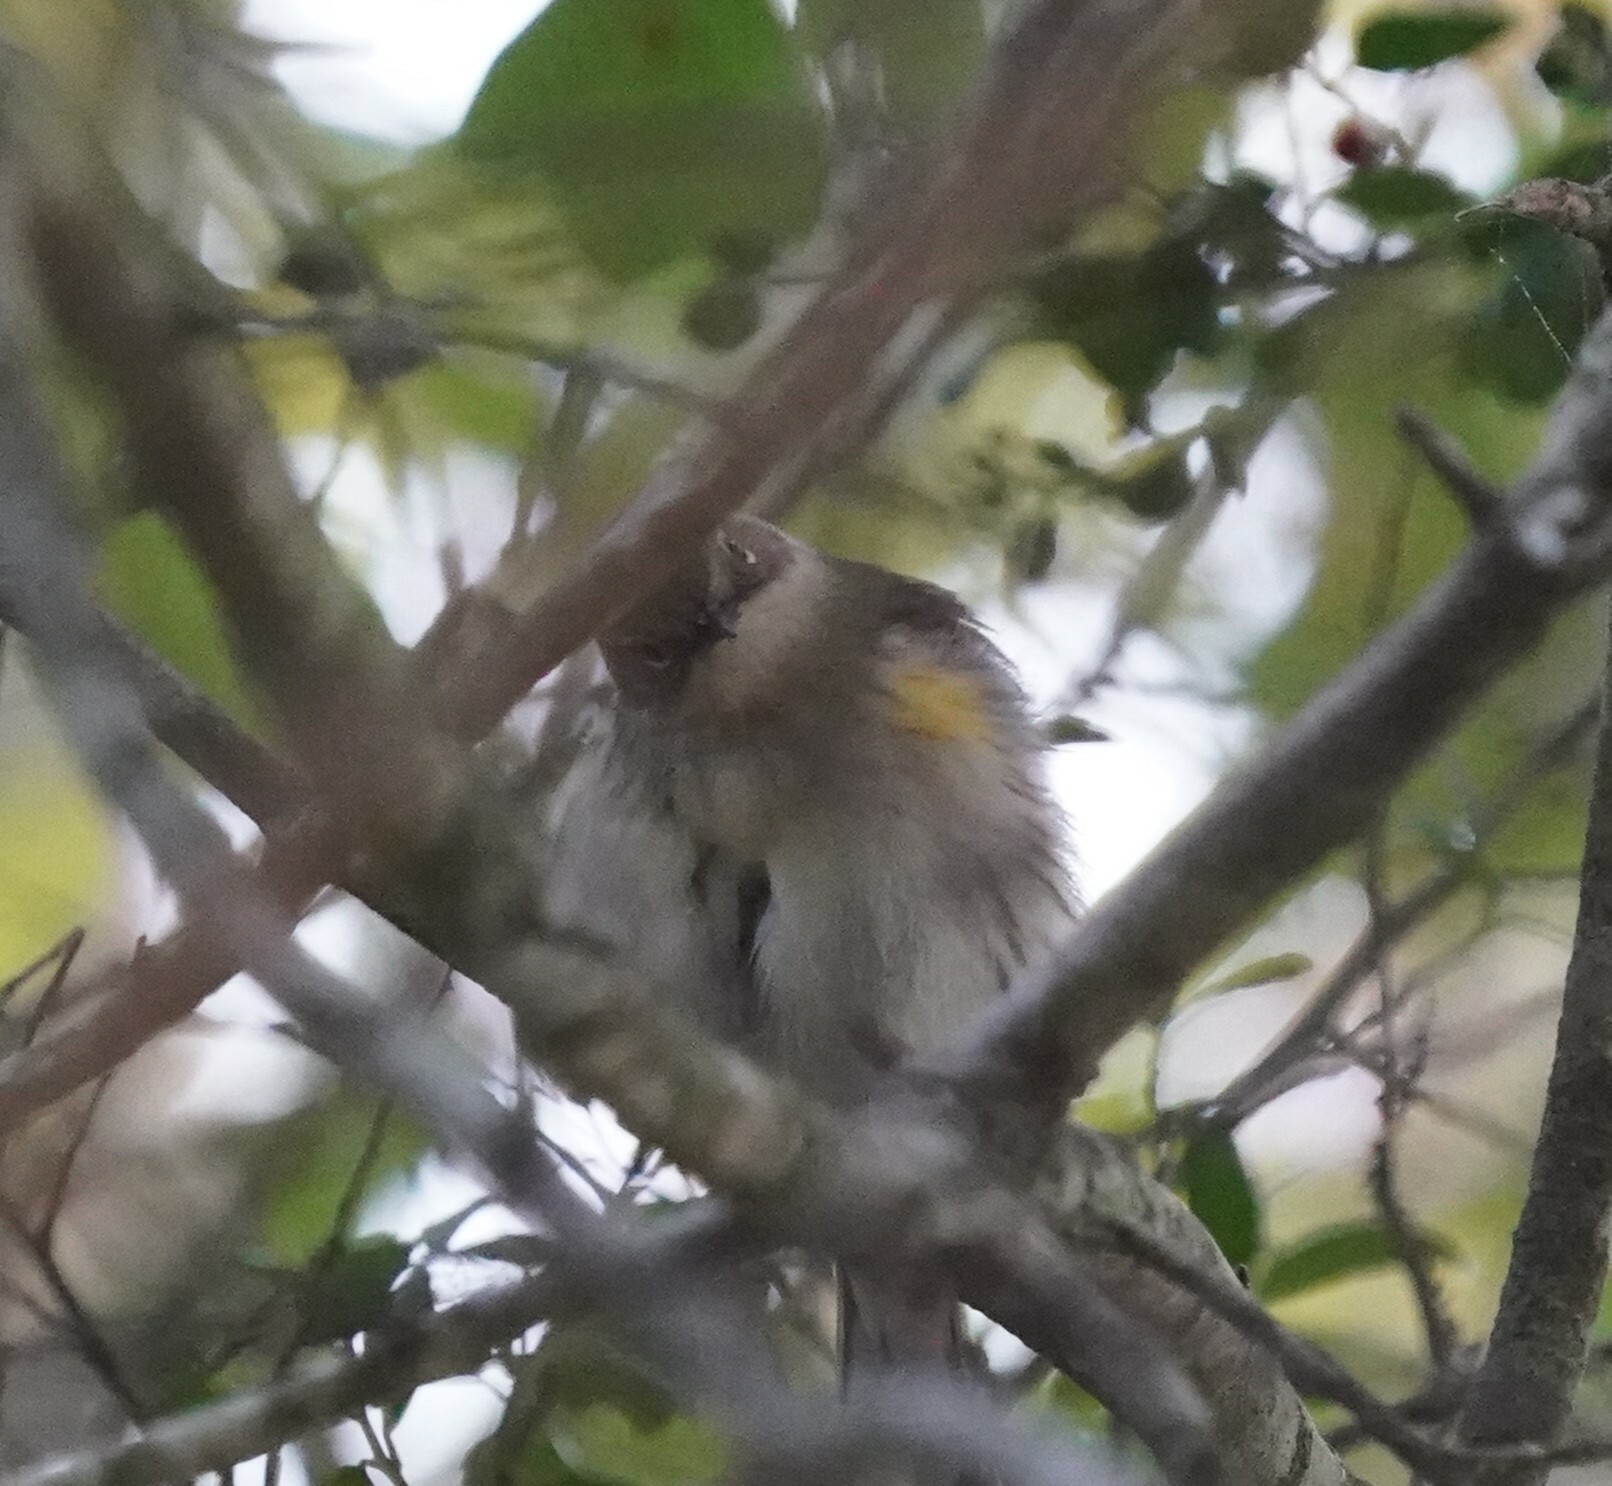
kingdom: Animalia
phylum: Chordata
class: Aves
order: Passeriformes
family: Parulidae
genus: Setophaga
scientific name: Setophaga coronata
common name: Myrtle warbler
